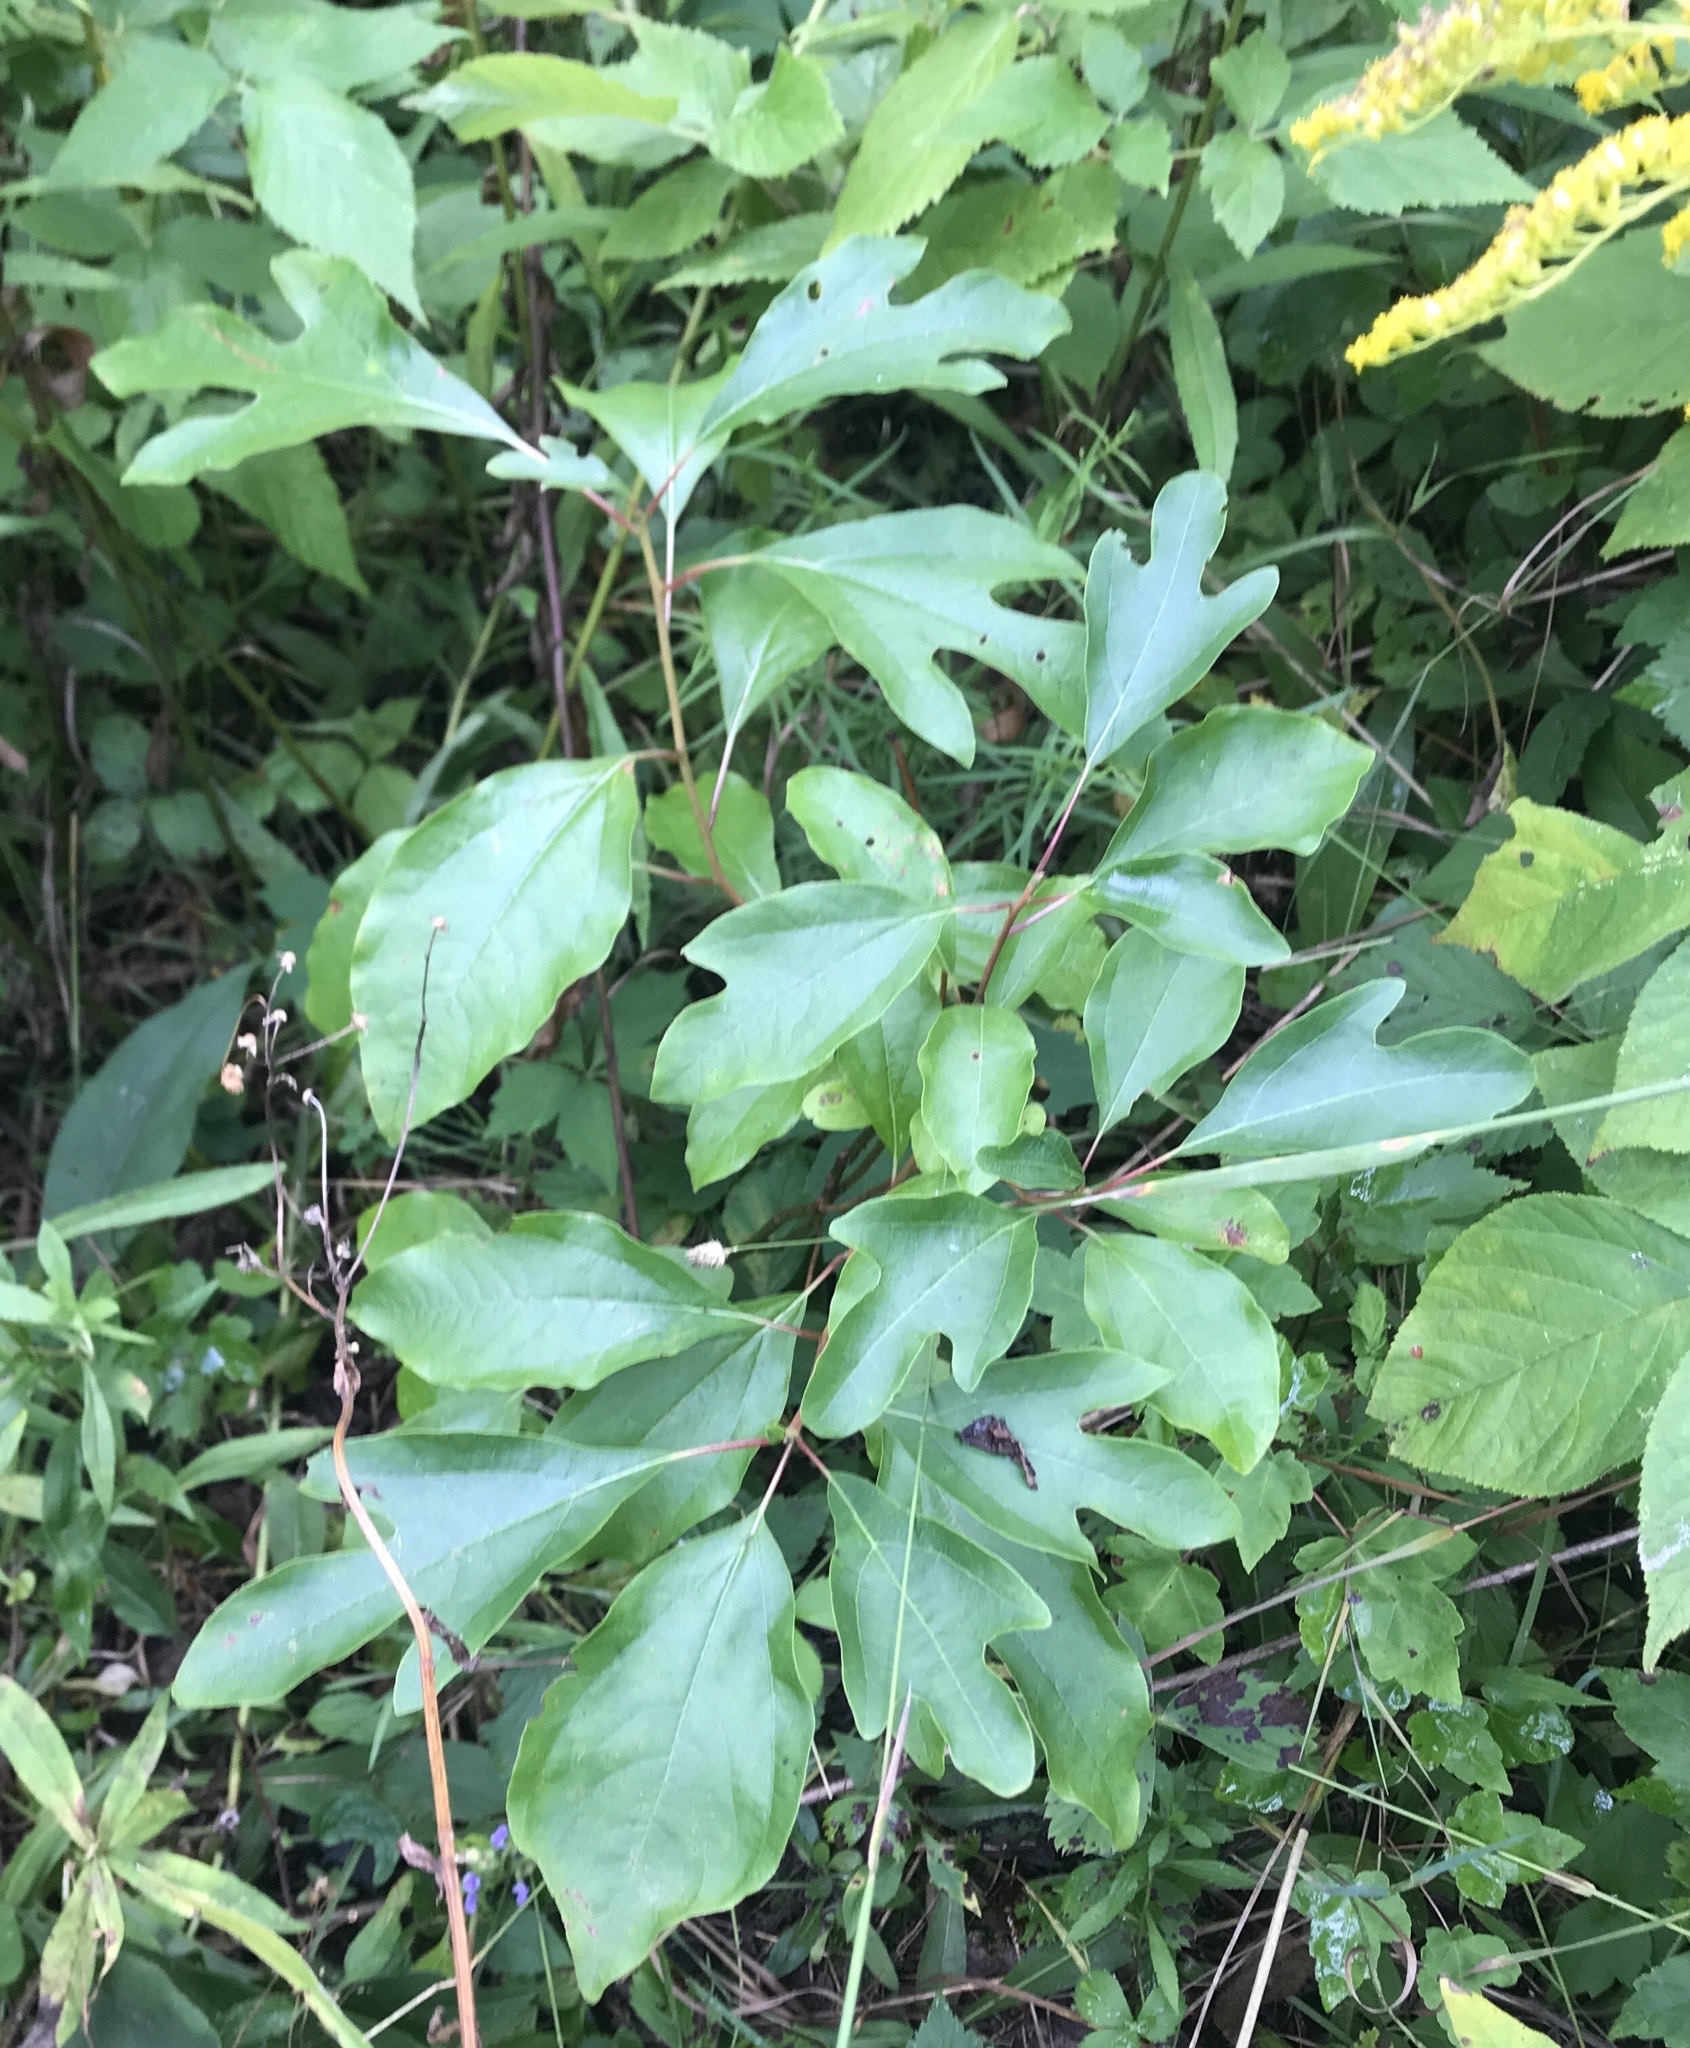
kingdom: Plantae
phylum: Tracheophyta
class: Magnoliopsida
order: Laurales
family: Lauraceae
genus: Sassafras
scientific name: Sassafras albidum
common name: Sassafras
